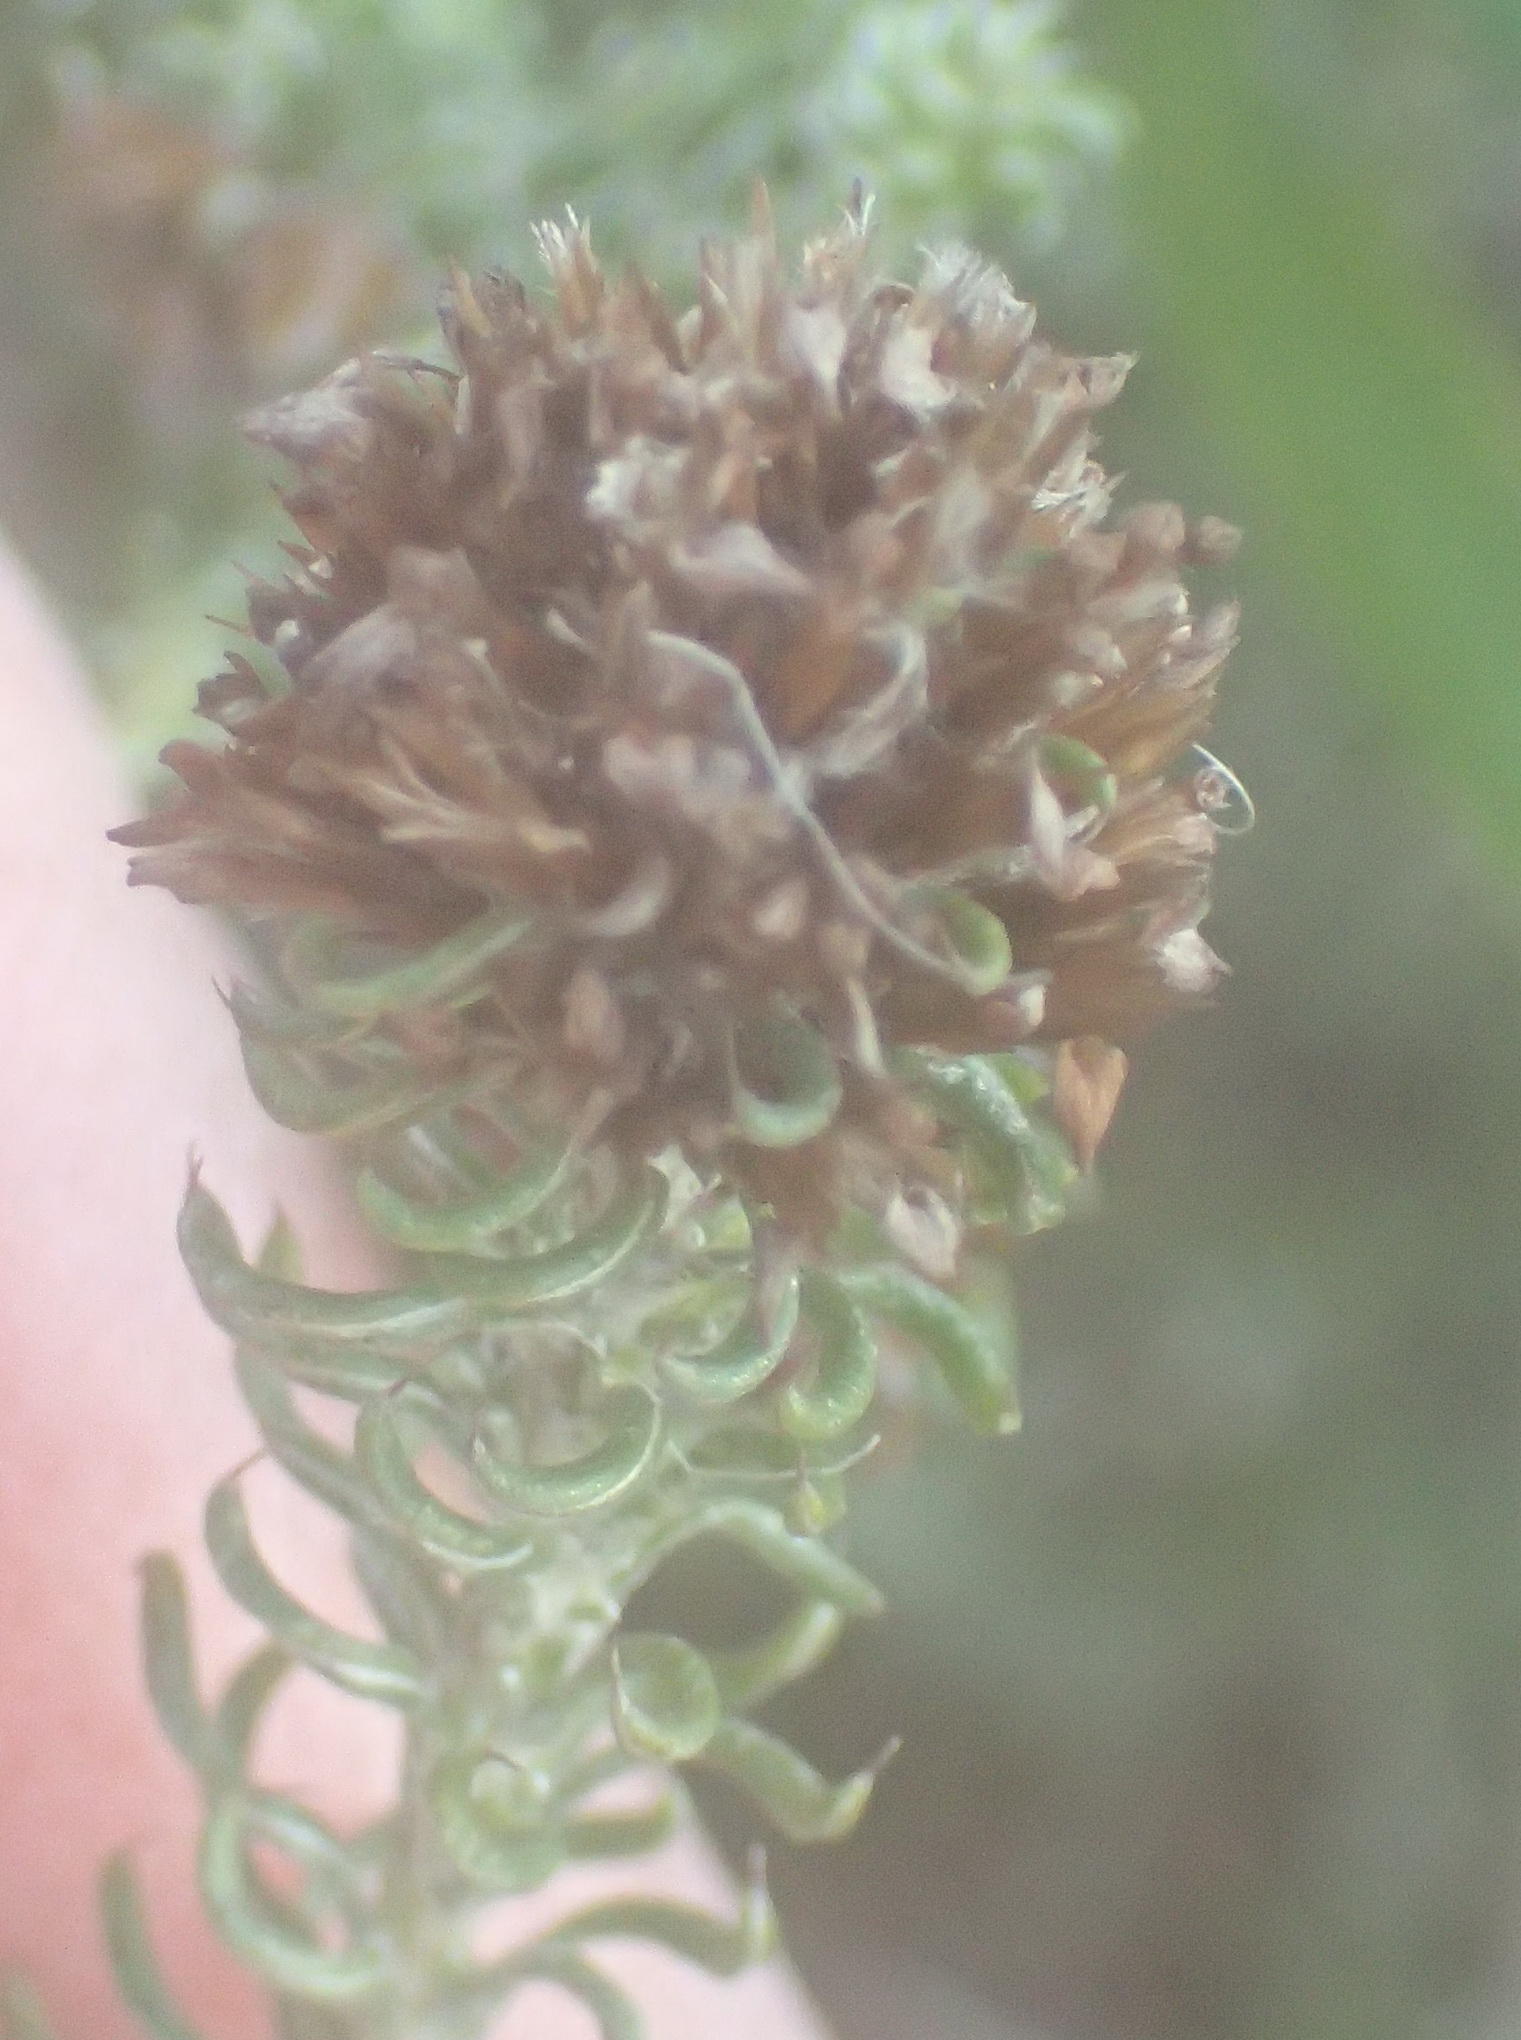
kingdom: Plantae
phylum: Tracheophyta
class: Magnoliopsida
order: Asterales
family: Asteraceae
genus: Disparago
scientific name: Disparago anomala
